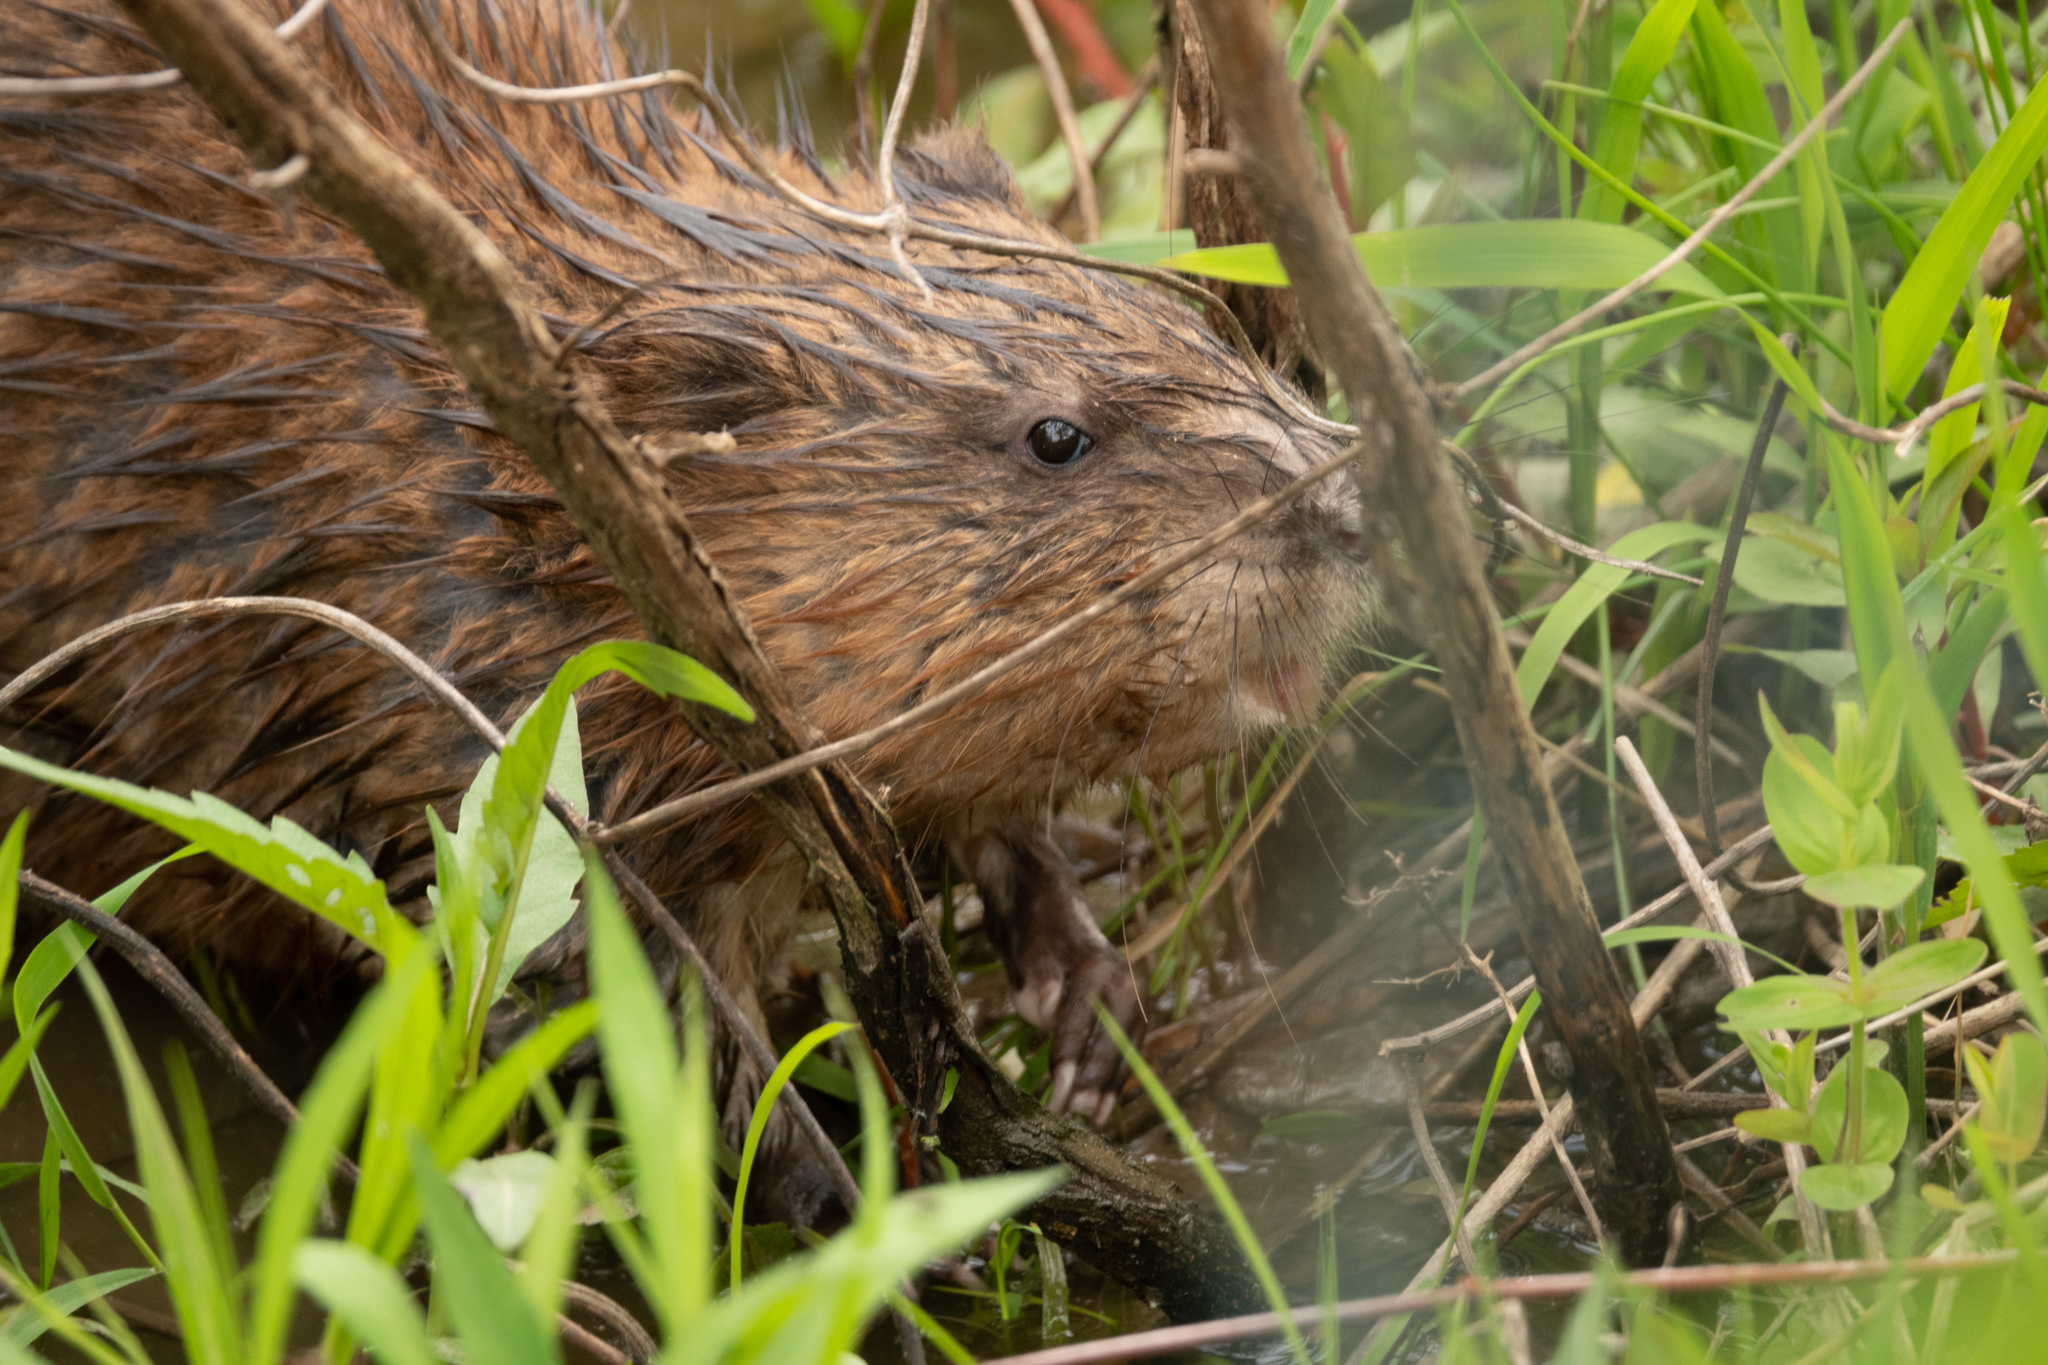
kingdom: Animalia
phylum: Chordata
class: Mammalia
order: Rodentia
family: Cricetidae
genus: Ondatra
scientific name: Ondatra zibethicus
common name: Muskrat
